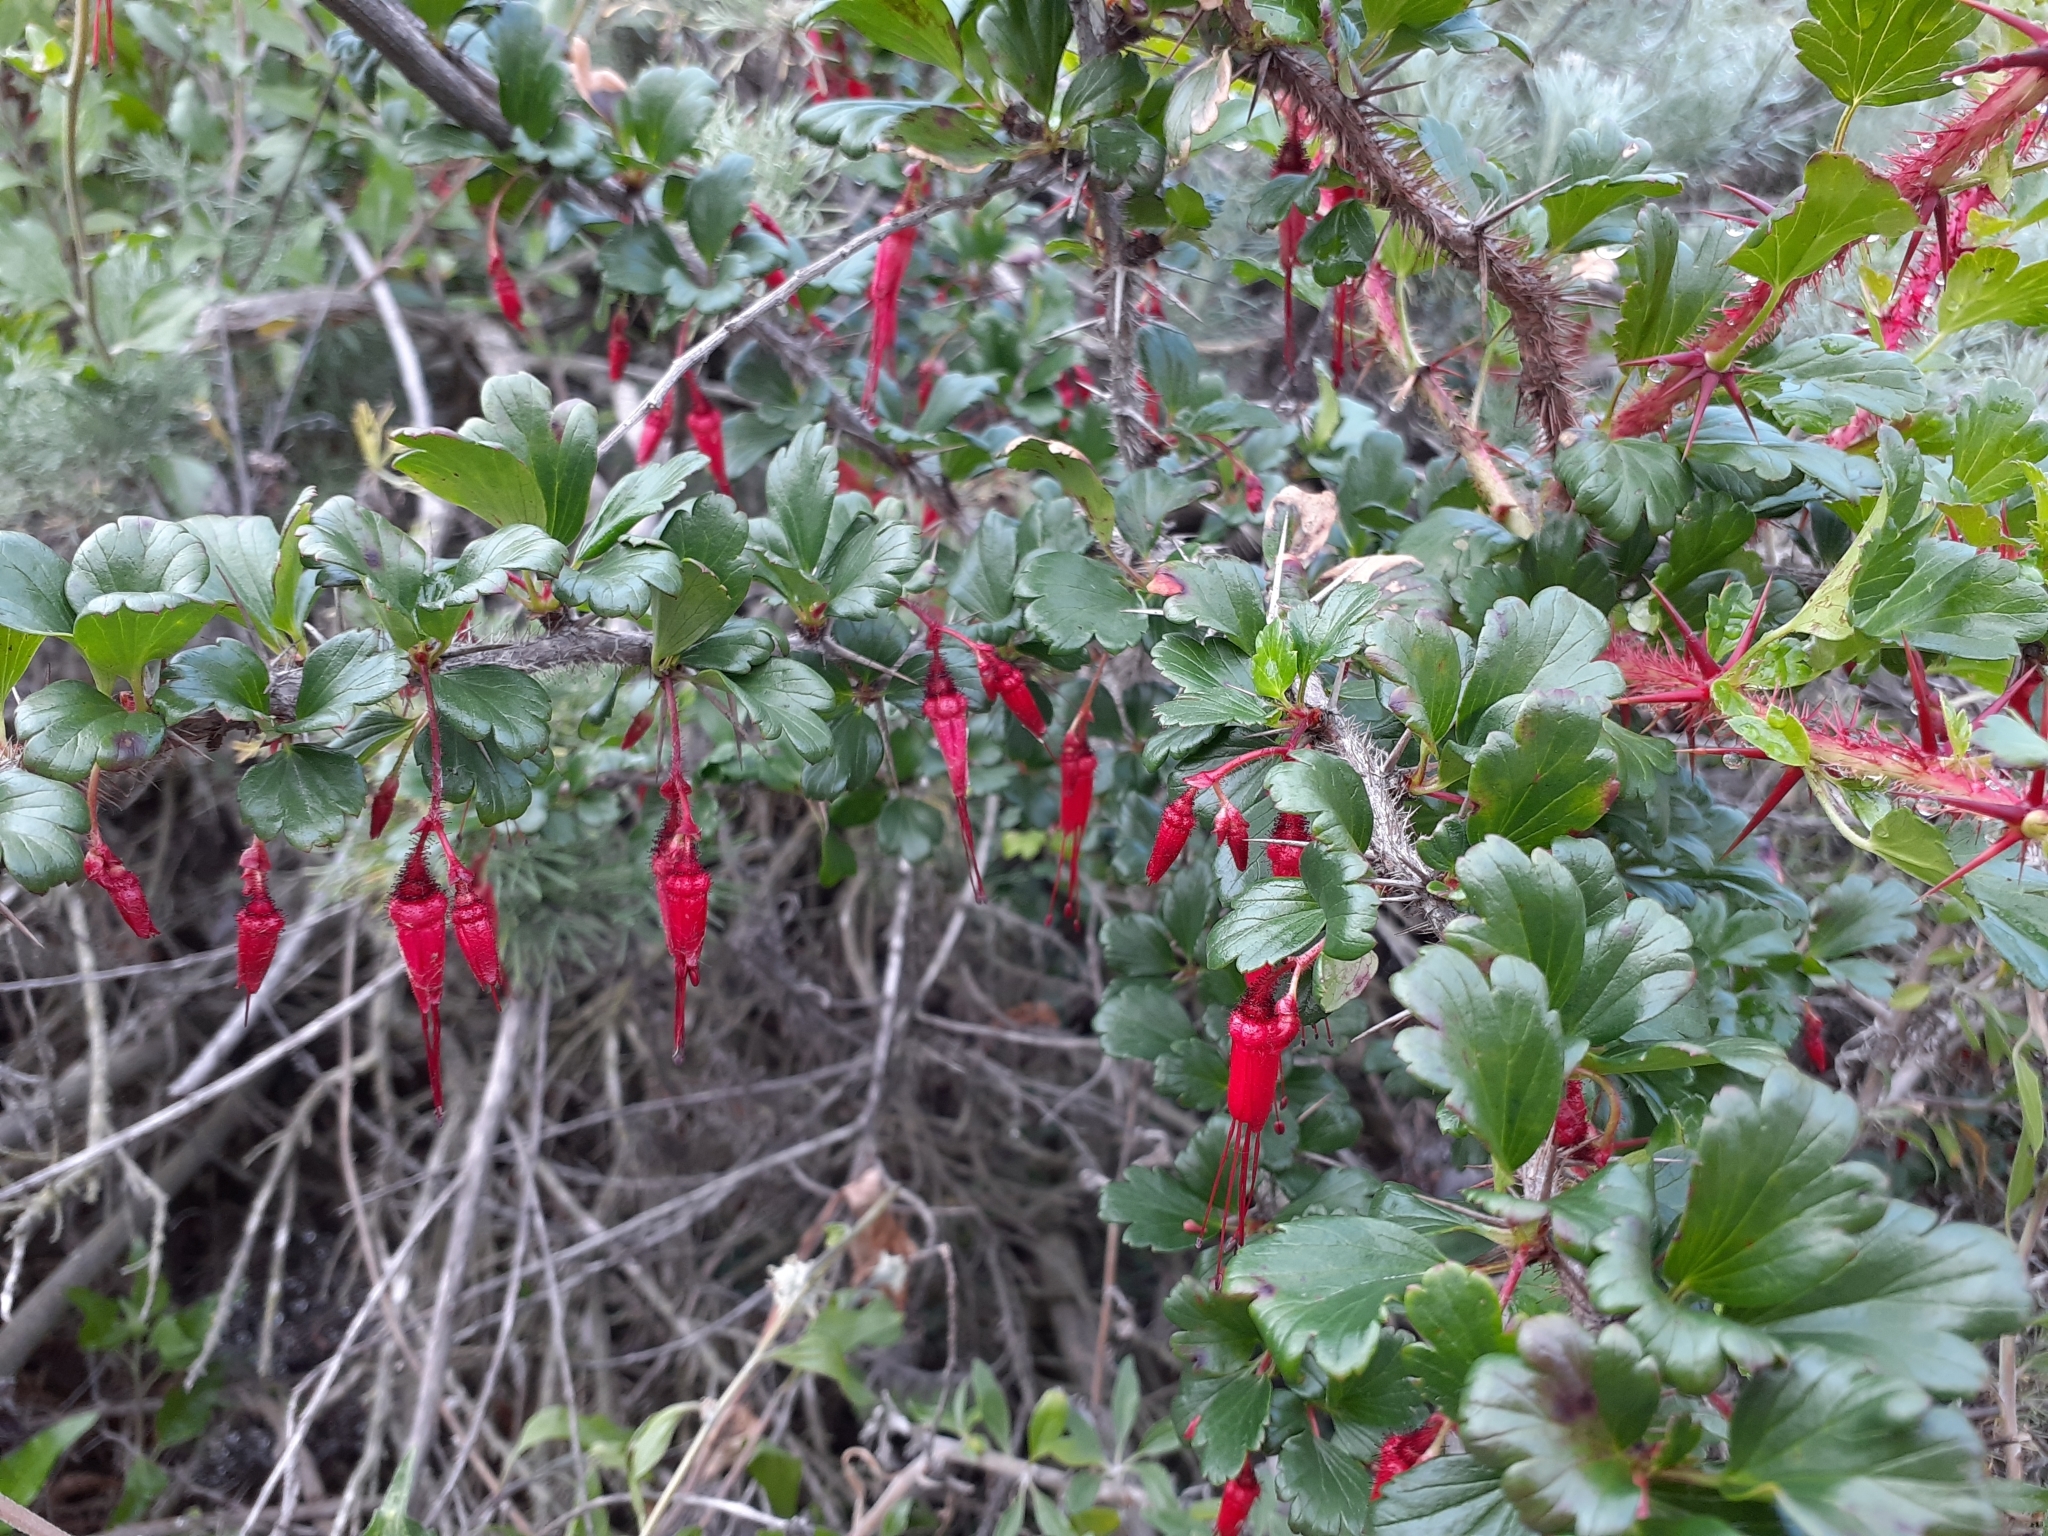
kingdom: Plantae
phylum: Tracheophyta
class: Magnoliopsida
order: Saxifragales
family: Grossulariaceae
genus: Ribes
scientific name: Ribes speciosum
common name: Fuchsia-flower gooseberry
